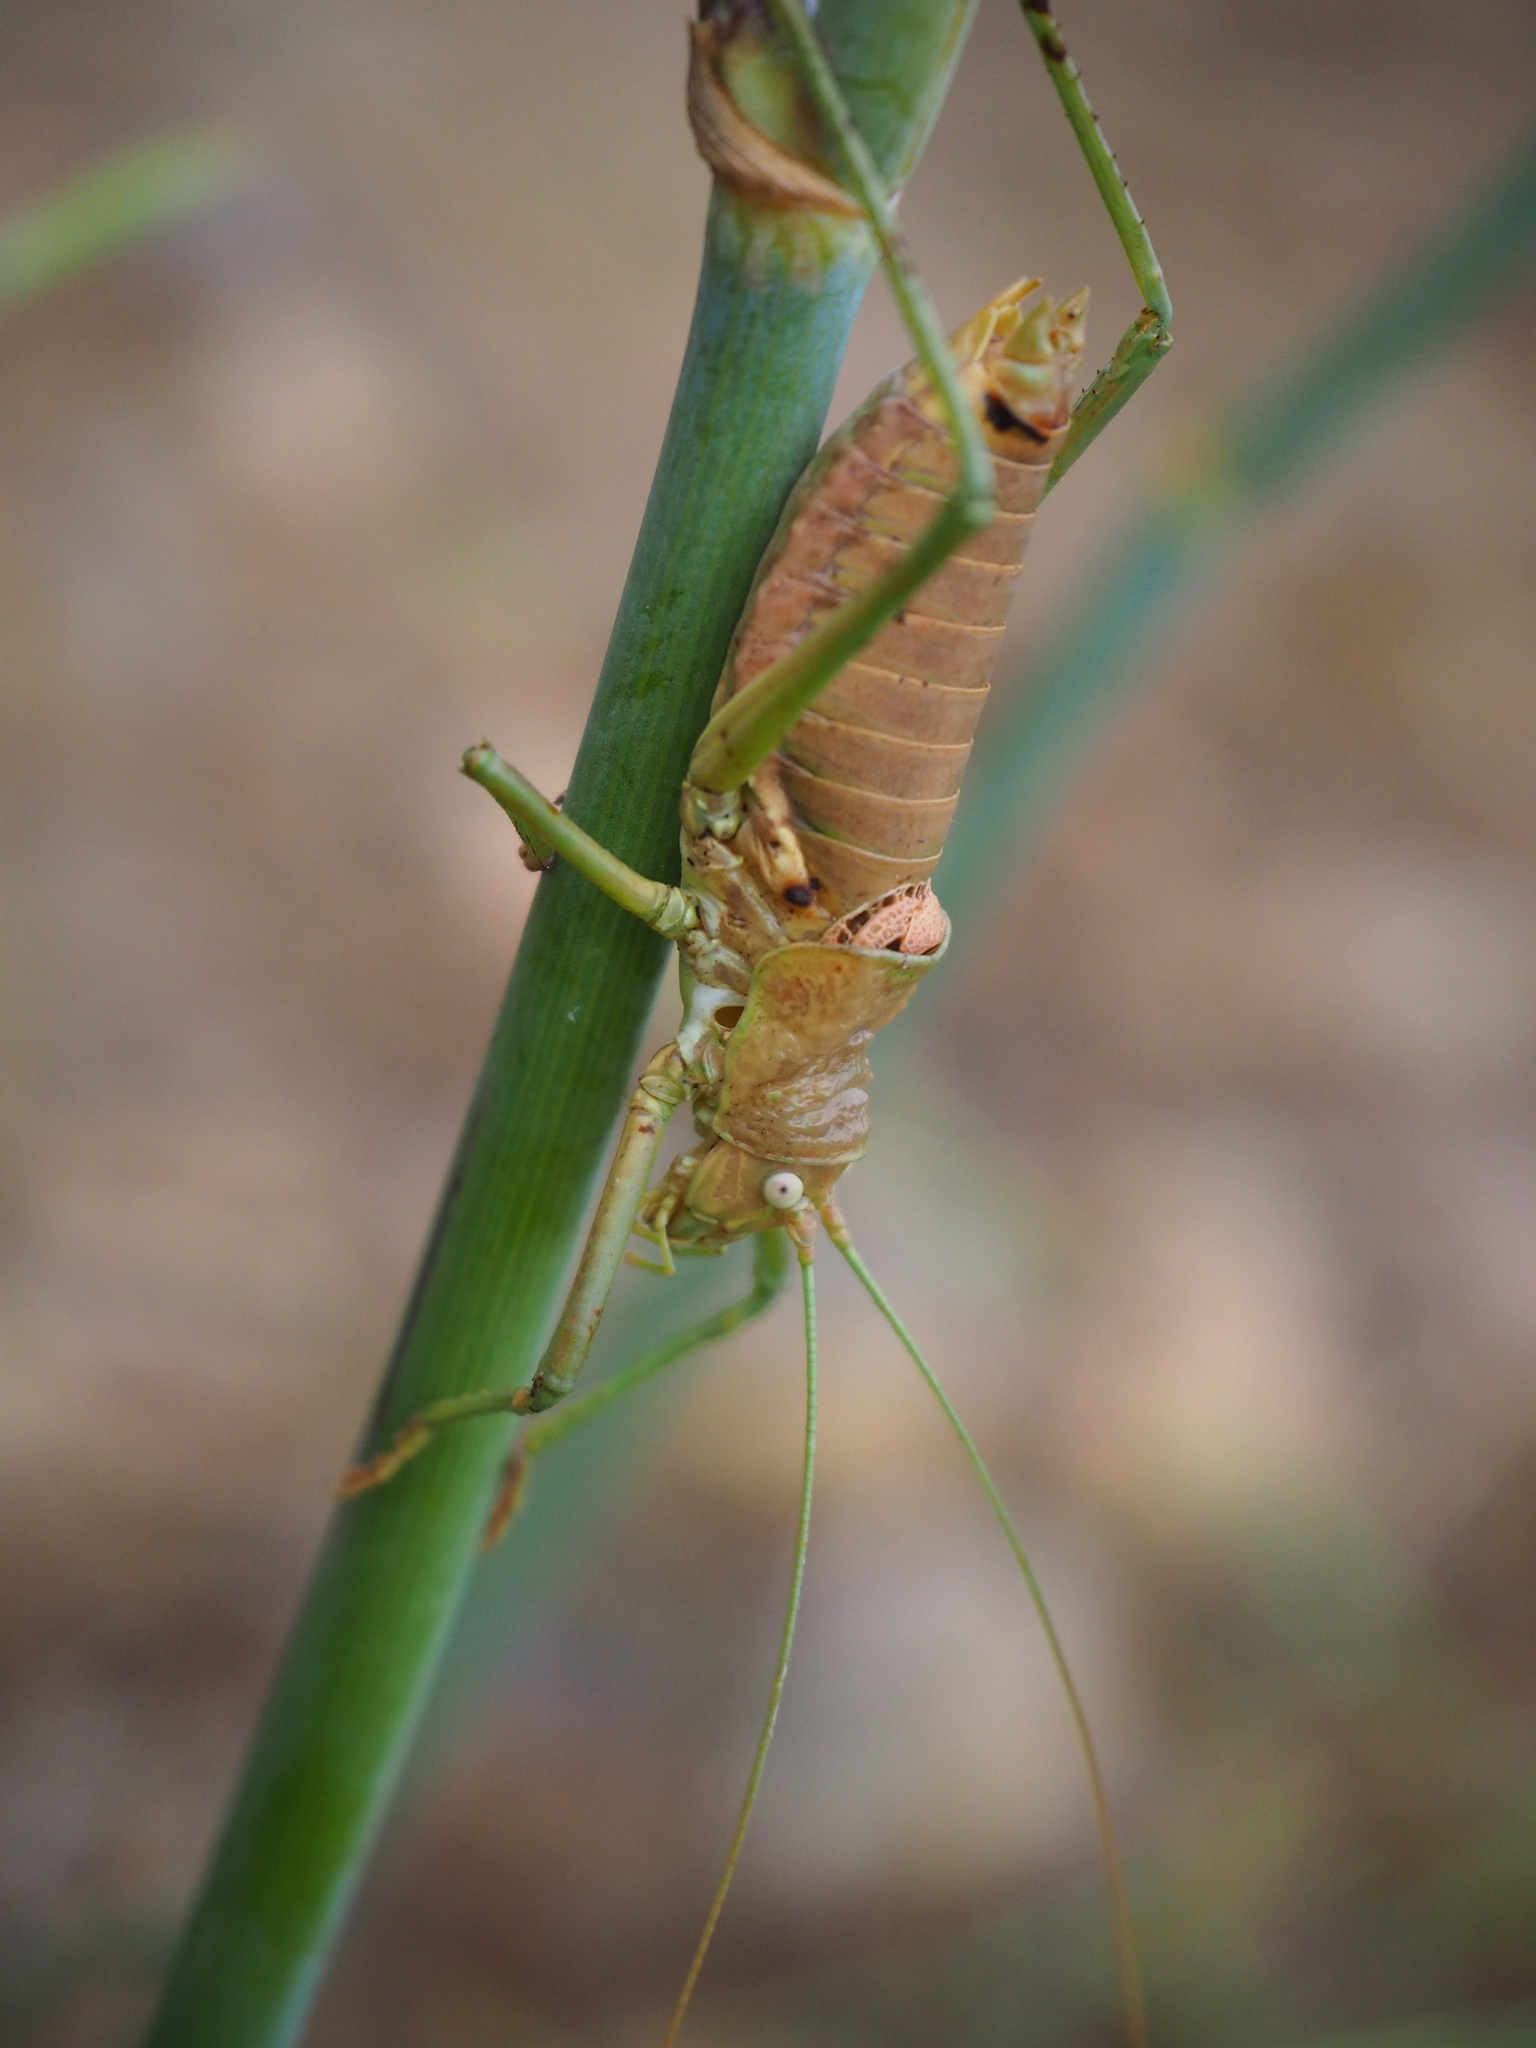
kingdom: Animalia
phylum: Arthropoda
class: Insecta
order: Orthoptera
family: Tettigoniidae
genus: Uromenus
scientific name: Uromenus brevicollis
